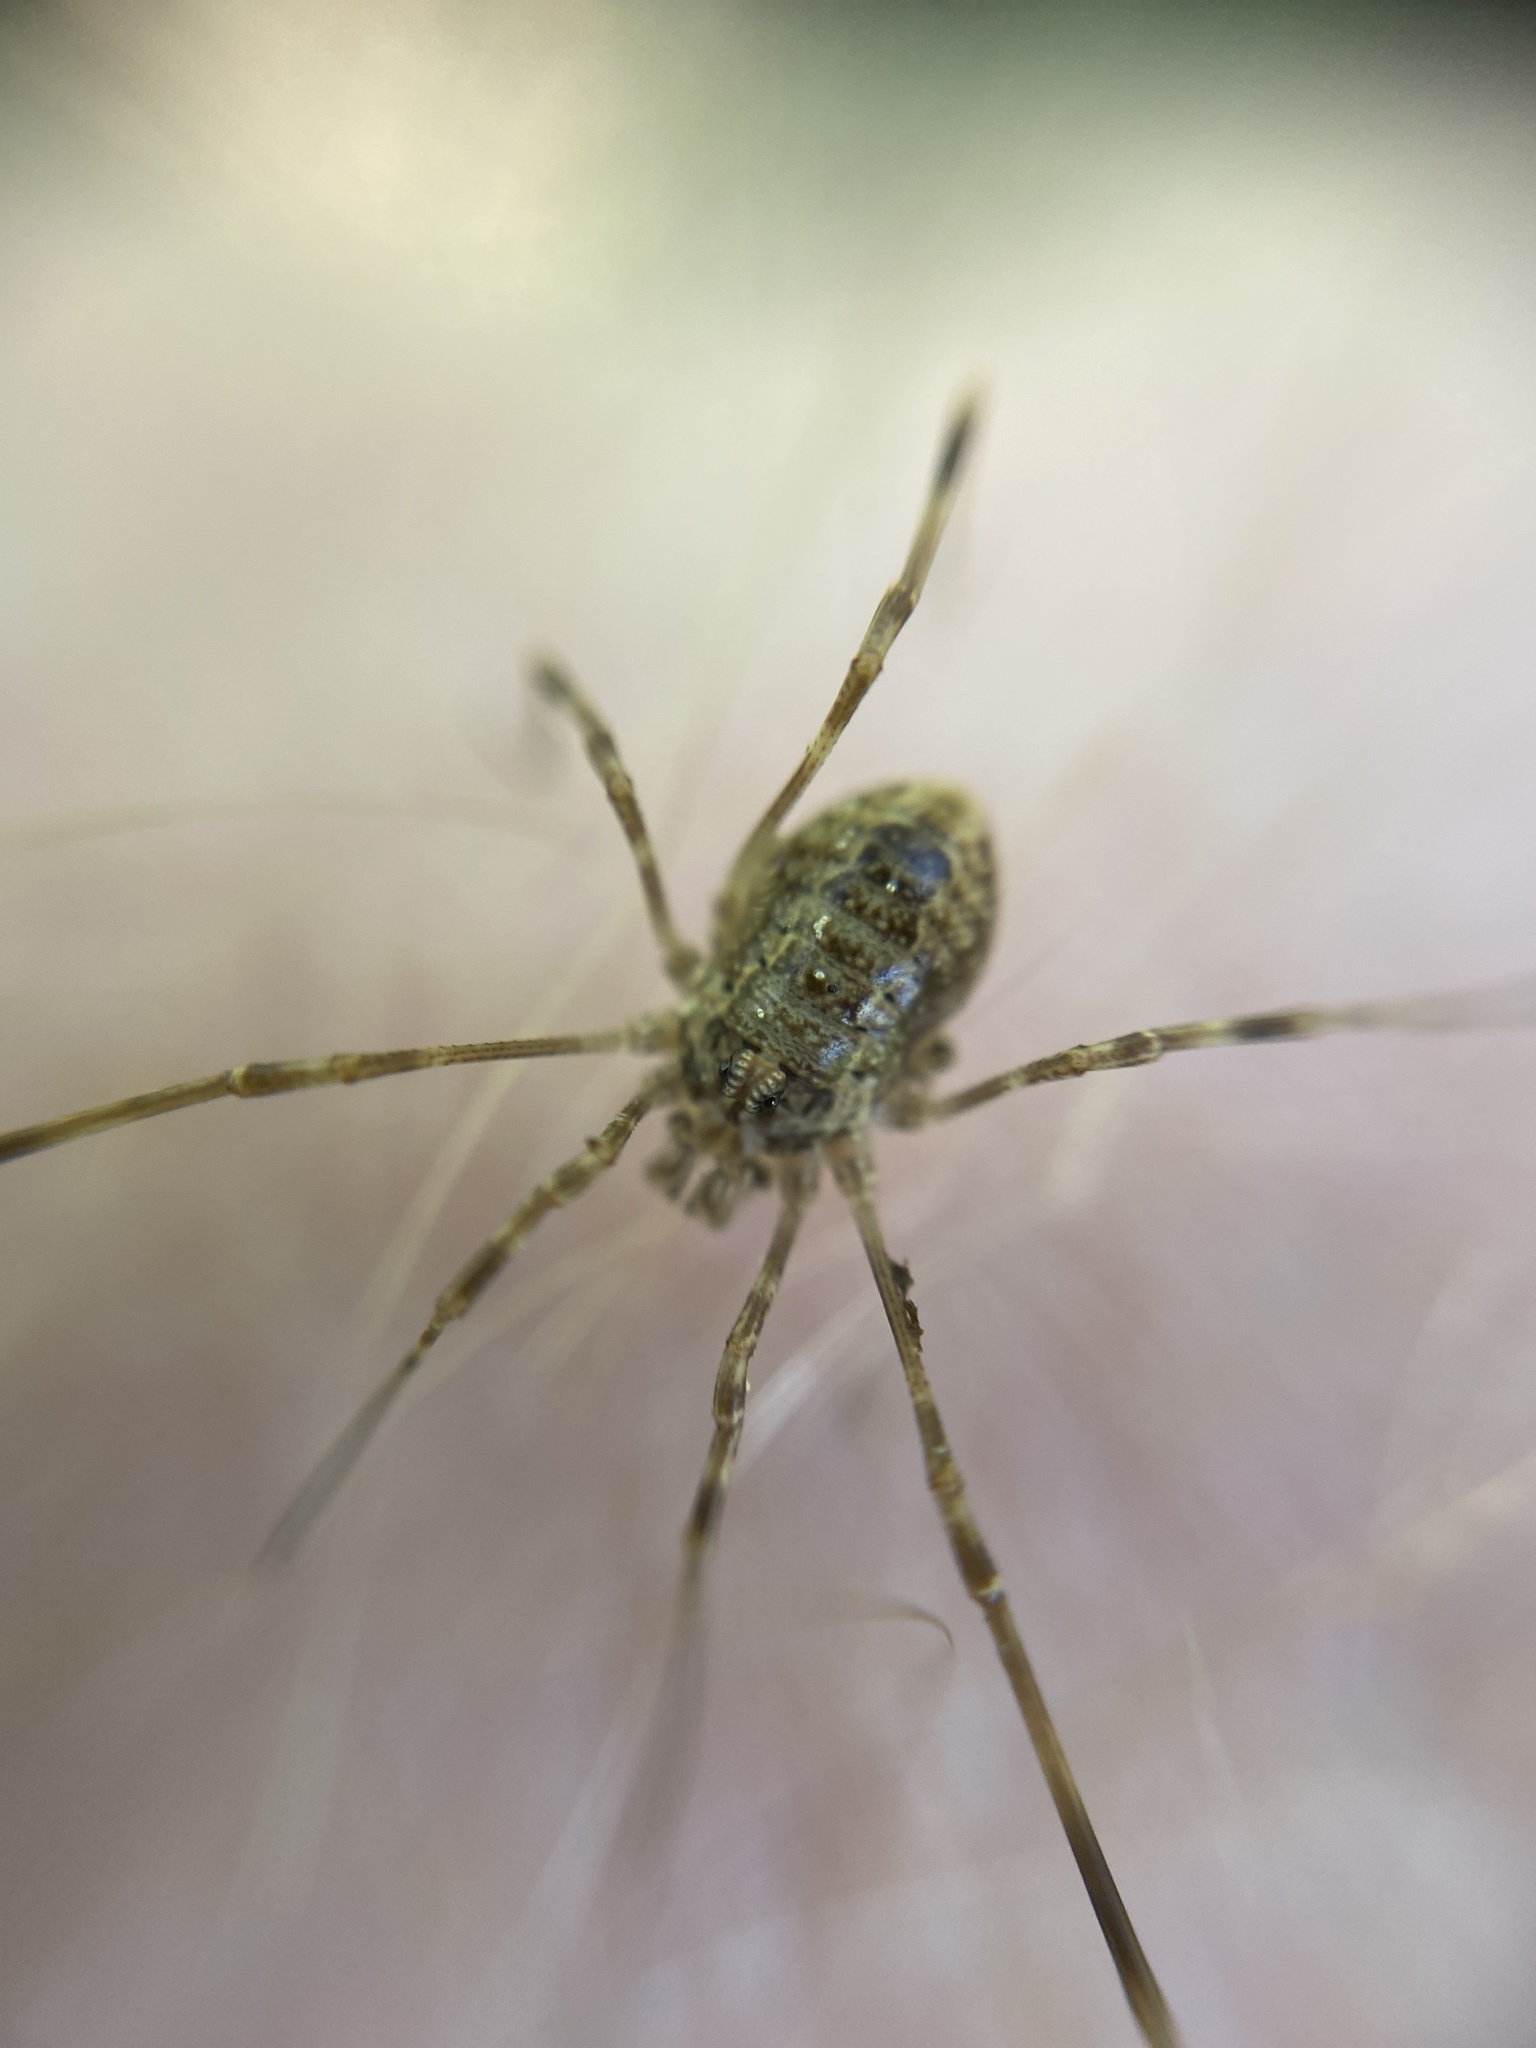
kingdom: Animalia
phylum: Arthropoda
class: Arachnida
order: Opiliones
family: Phalangiidae
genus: Rilaena
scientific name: Rilaena triangularis
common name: Spring harvestman
